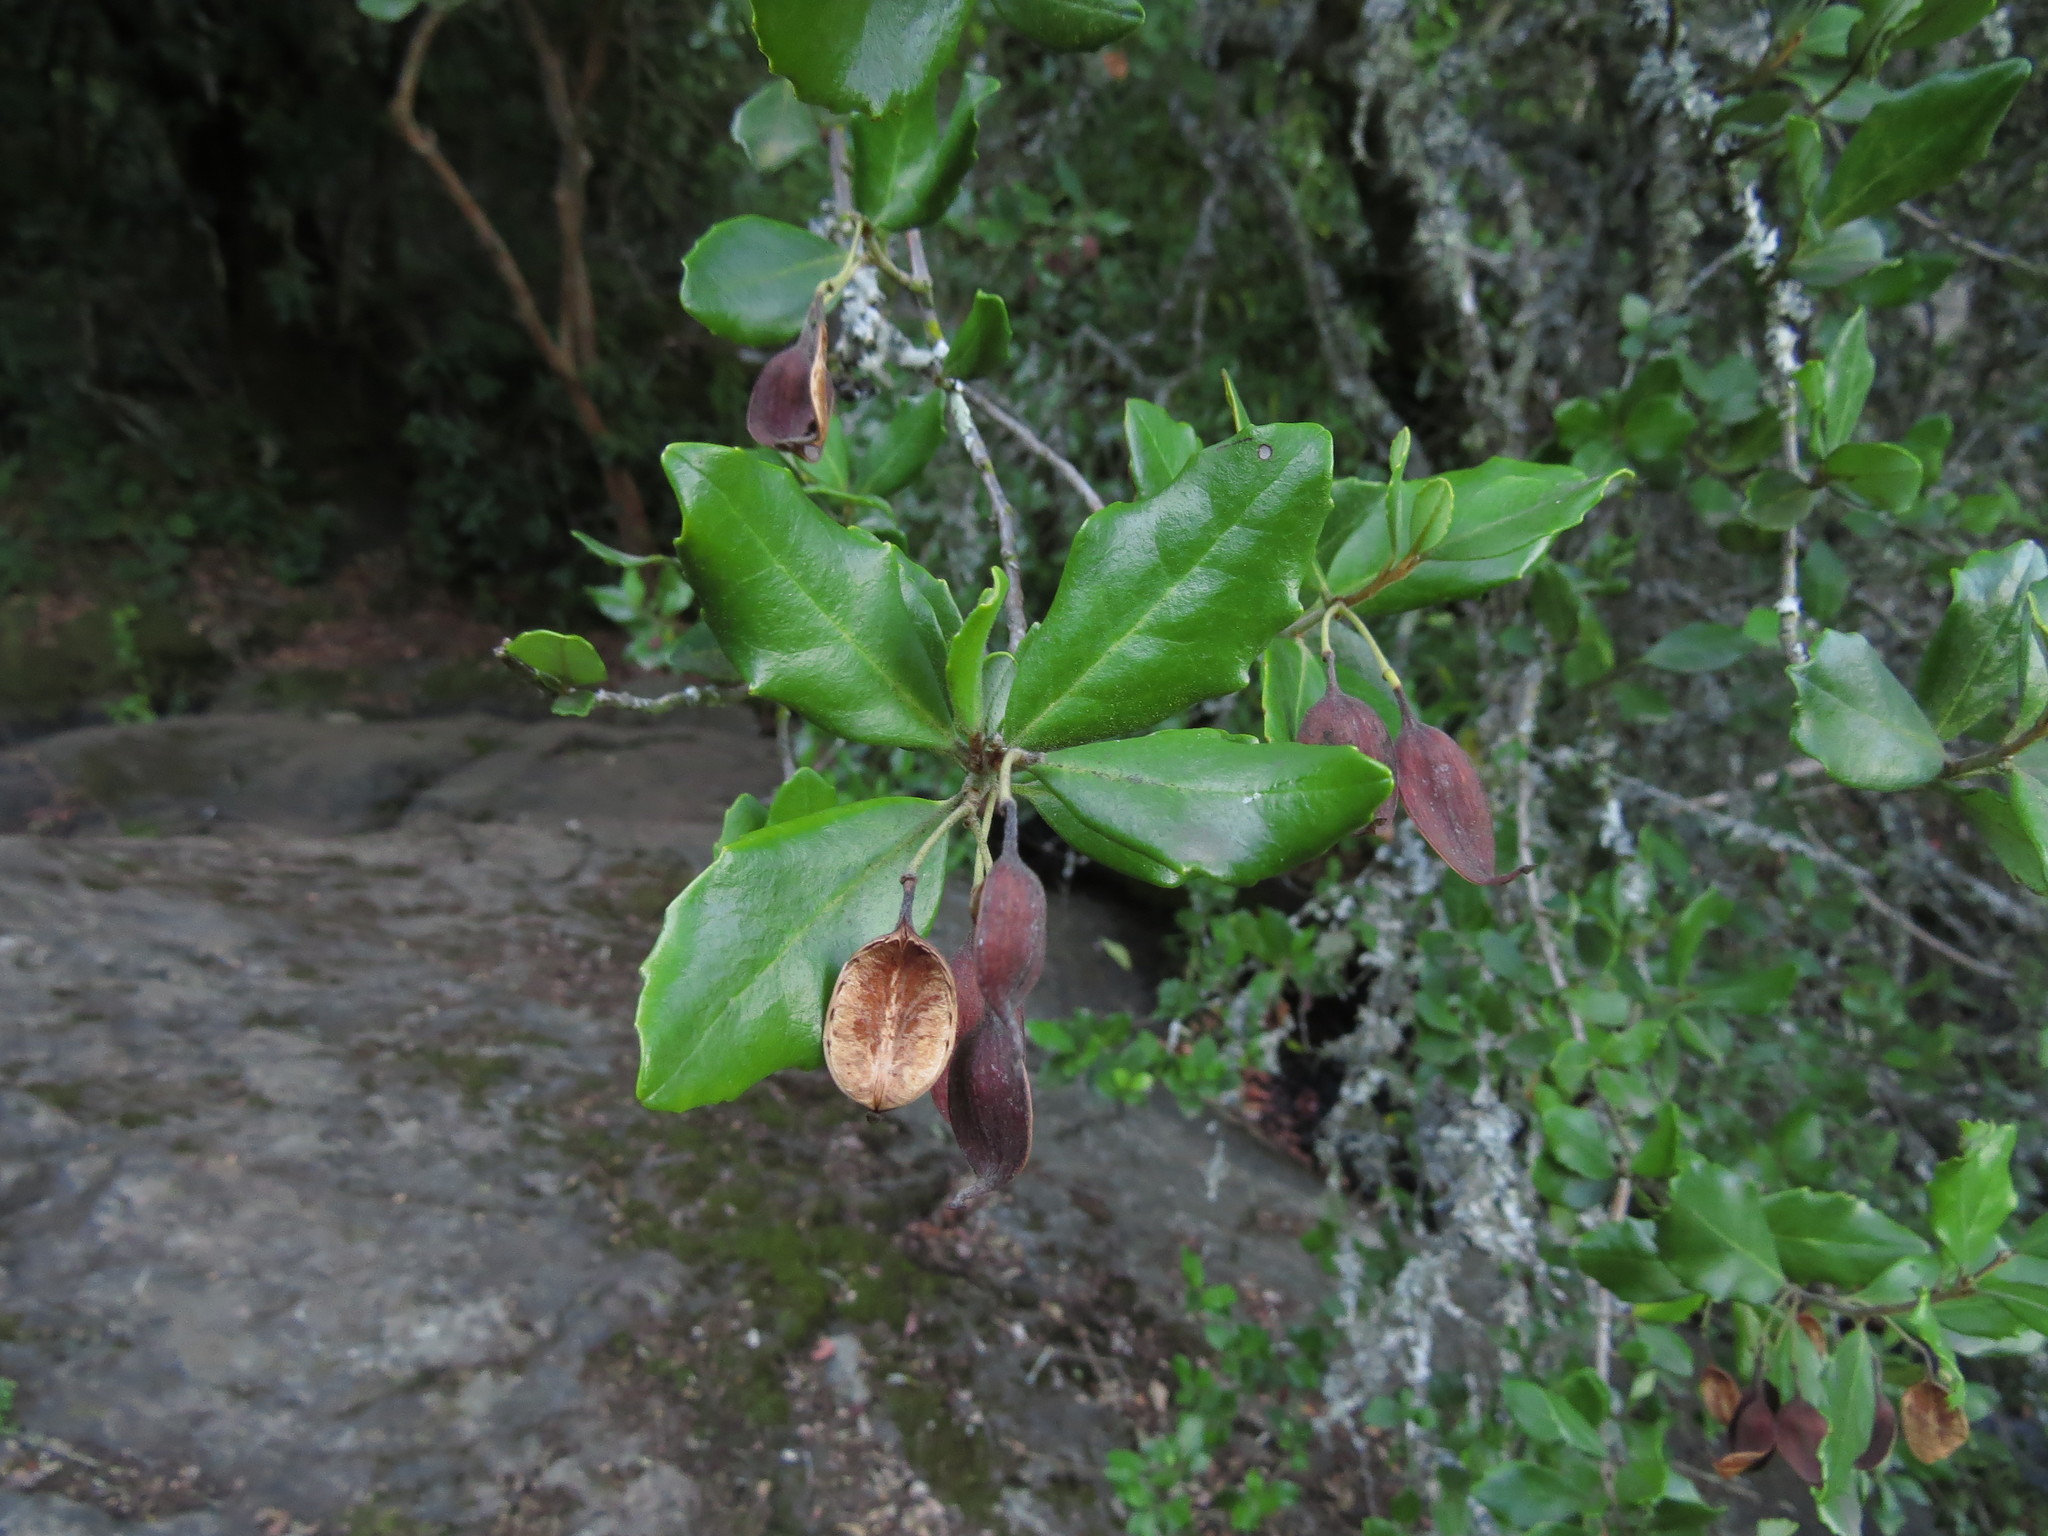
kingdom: Plantae
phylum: Tracheophyta
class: Magnoliopsida
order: Proteales
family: Proteaceae
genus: Lomatia
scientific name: Lomatia dentata
